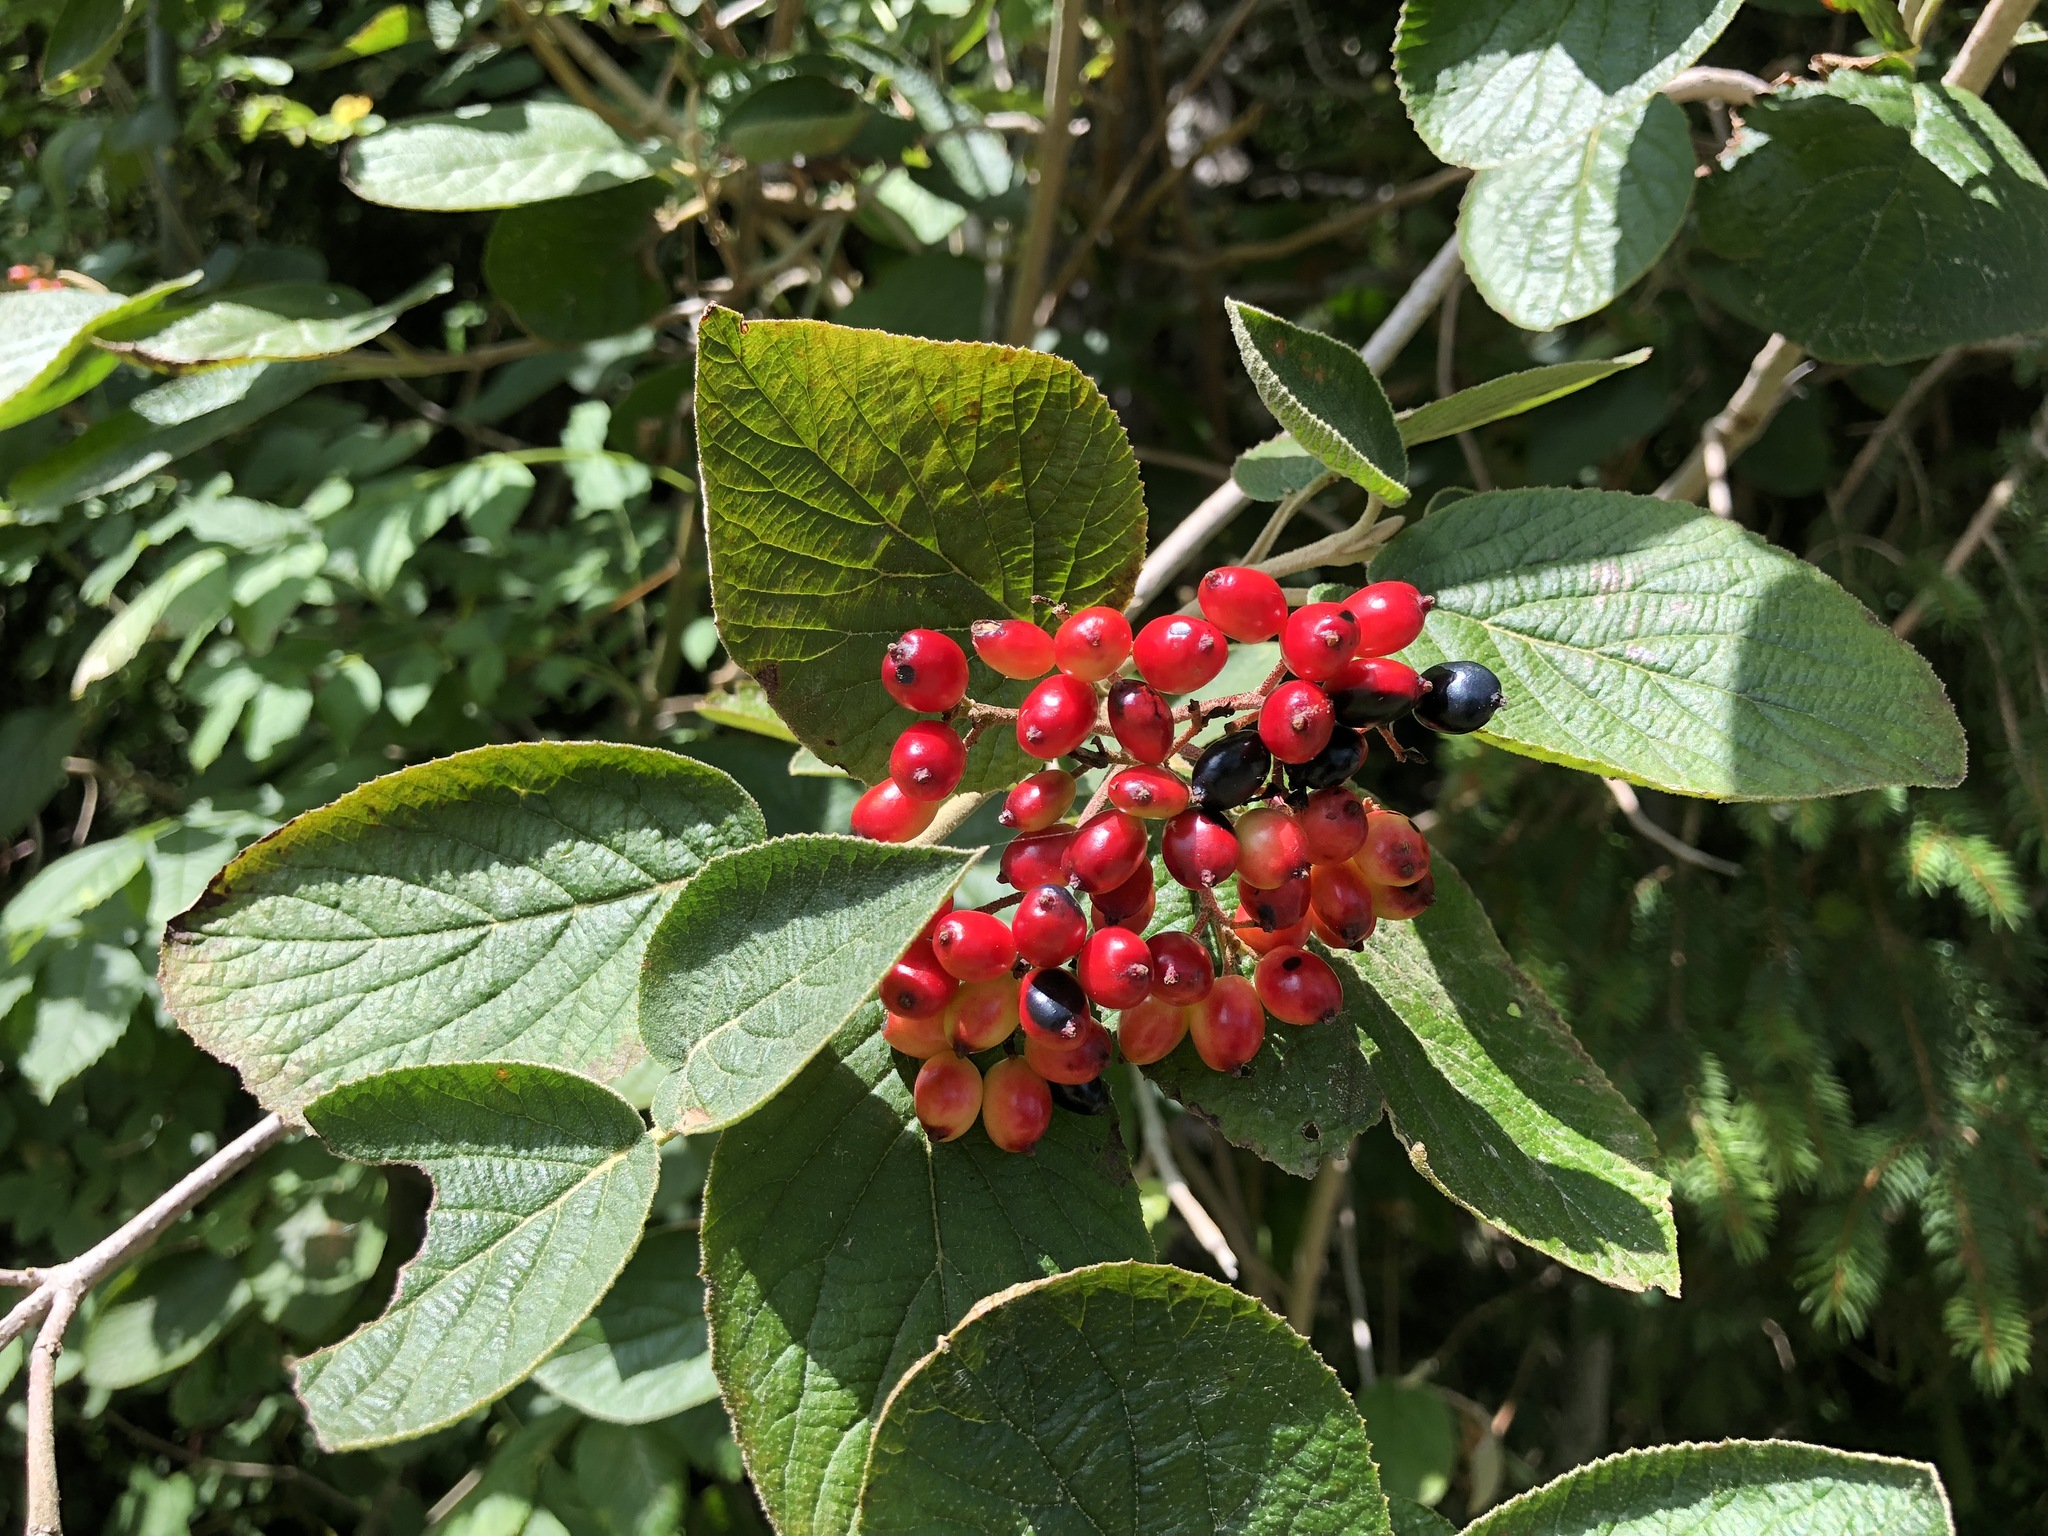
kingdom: Plantae
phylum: Tracheophyta
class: Magnoliopsida
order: Dipsacales
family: Viburnaceae
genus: Viburnum
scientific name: Viburnum lantana
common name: Wayfaring tree
